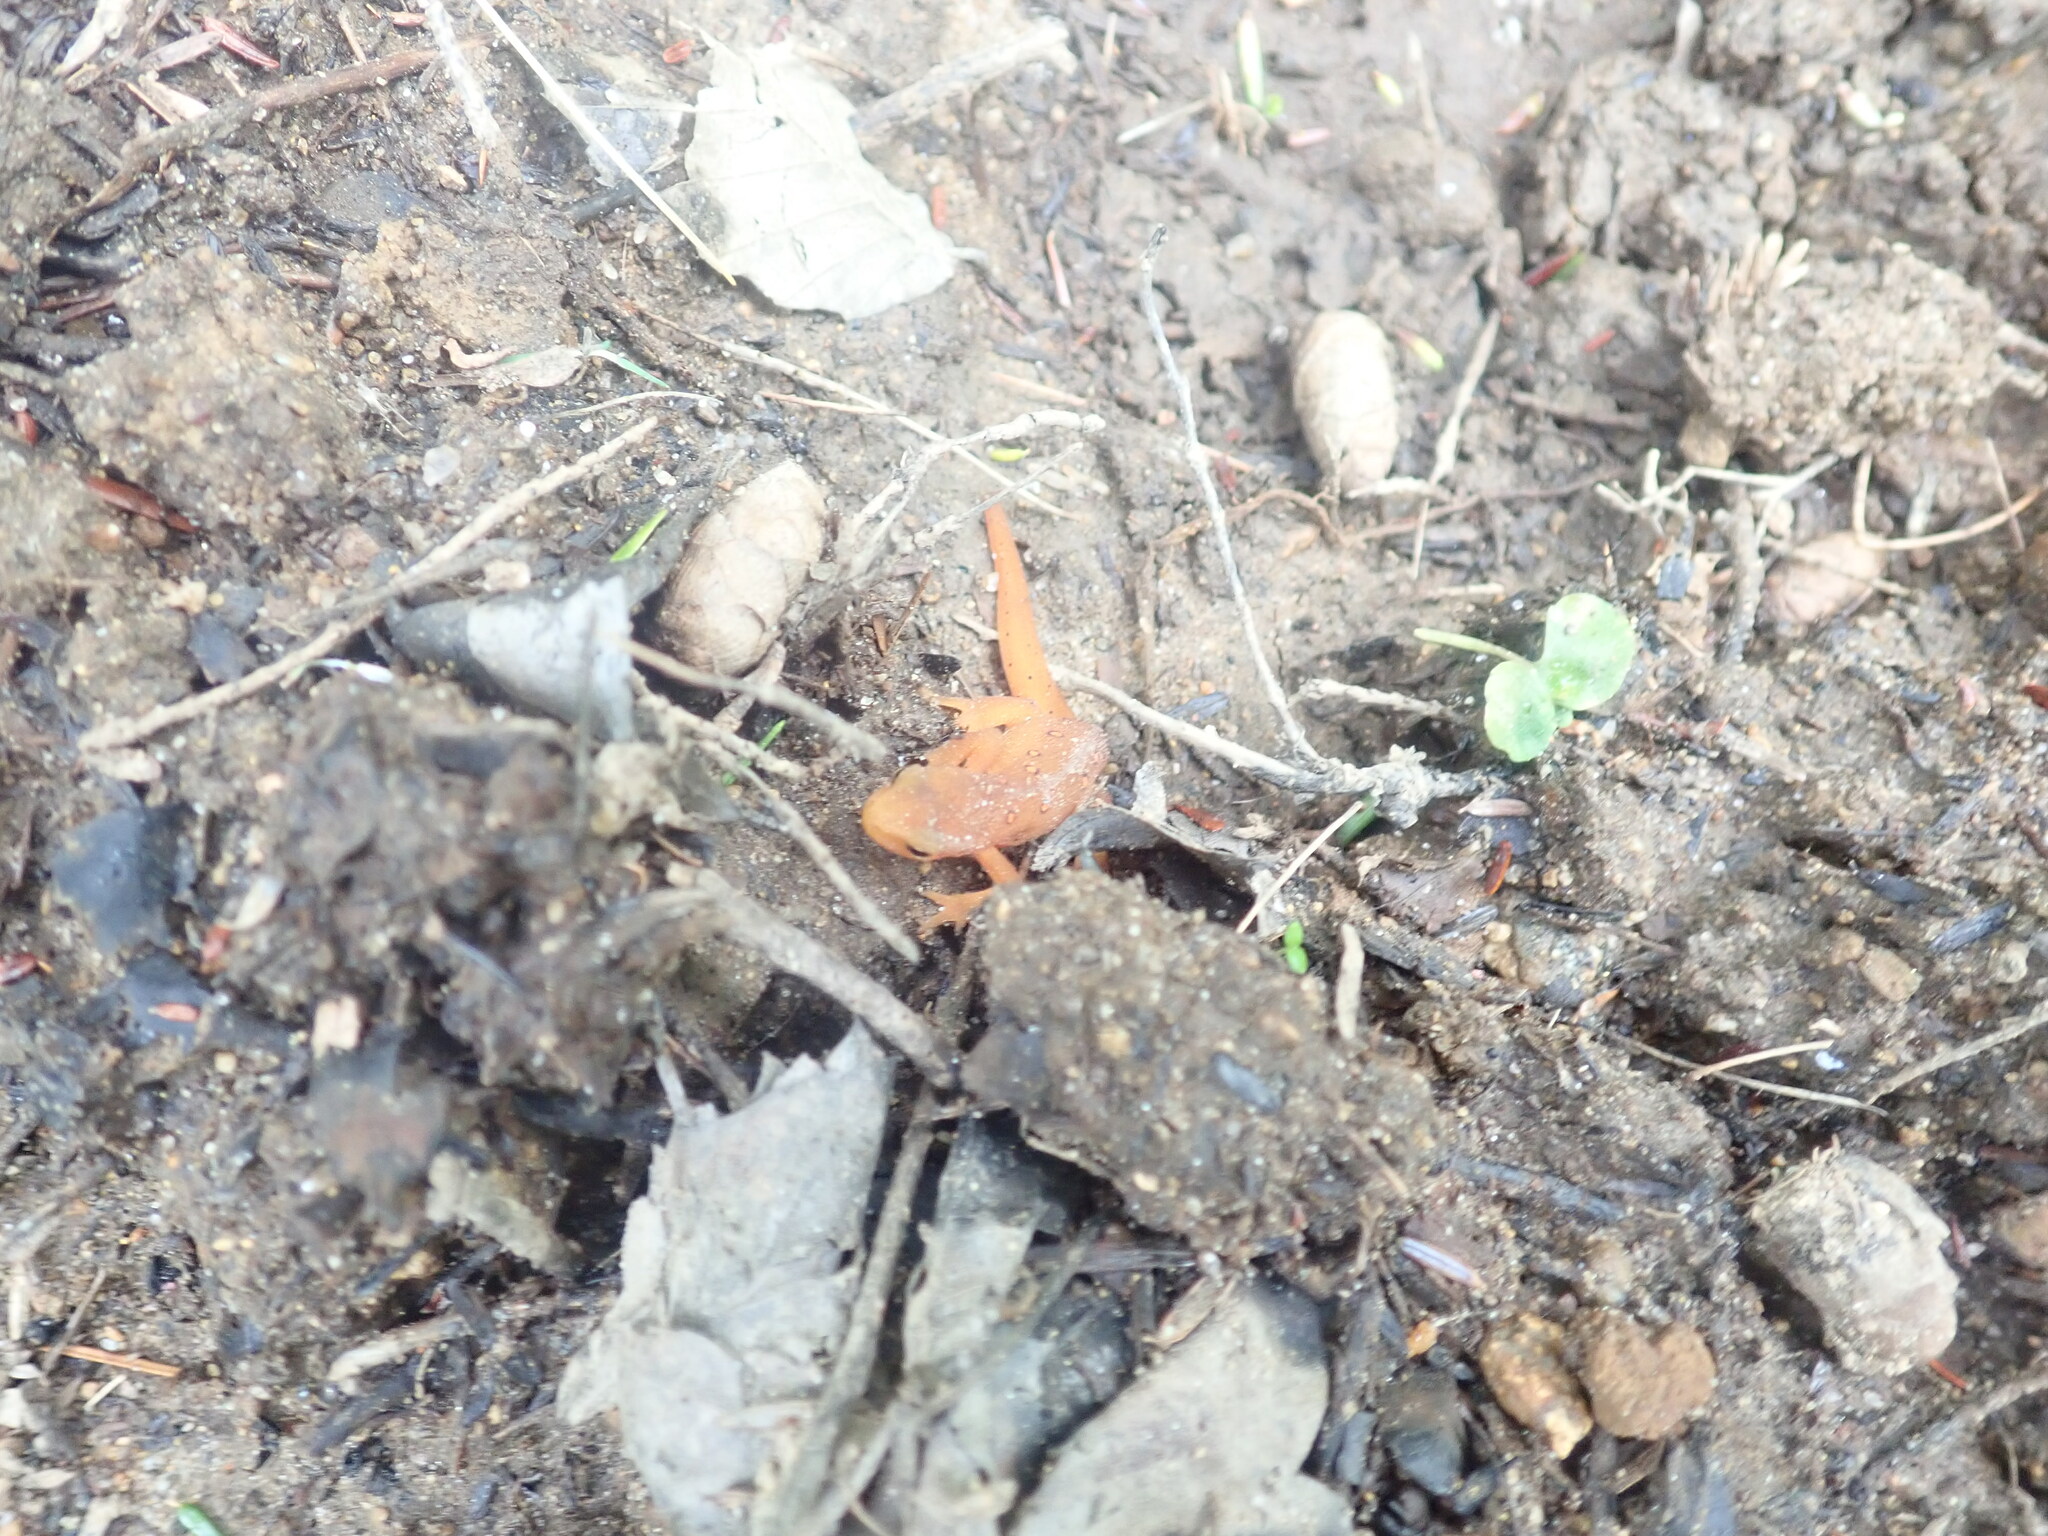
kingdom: Animalia
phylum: Chordata
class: Amphibia
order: Caudata
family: Salamandridae
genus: Notophthalmus
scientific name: Notophthalmus viridescens
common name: Eastern newt
